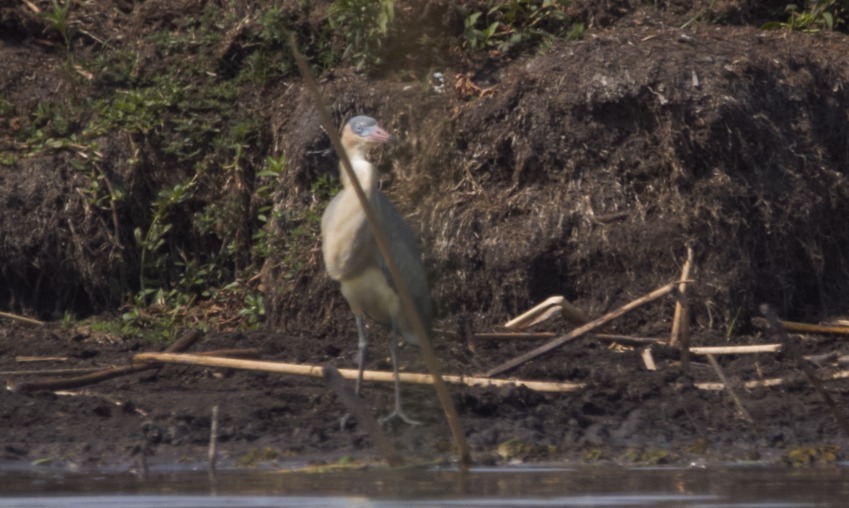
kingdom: Animalia
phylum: Chordata
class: Aves
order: Pelecaniformes
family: Ardeidae
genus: Syrigma
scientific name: Syrigma sibilatrix
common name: Whistling heron
